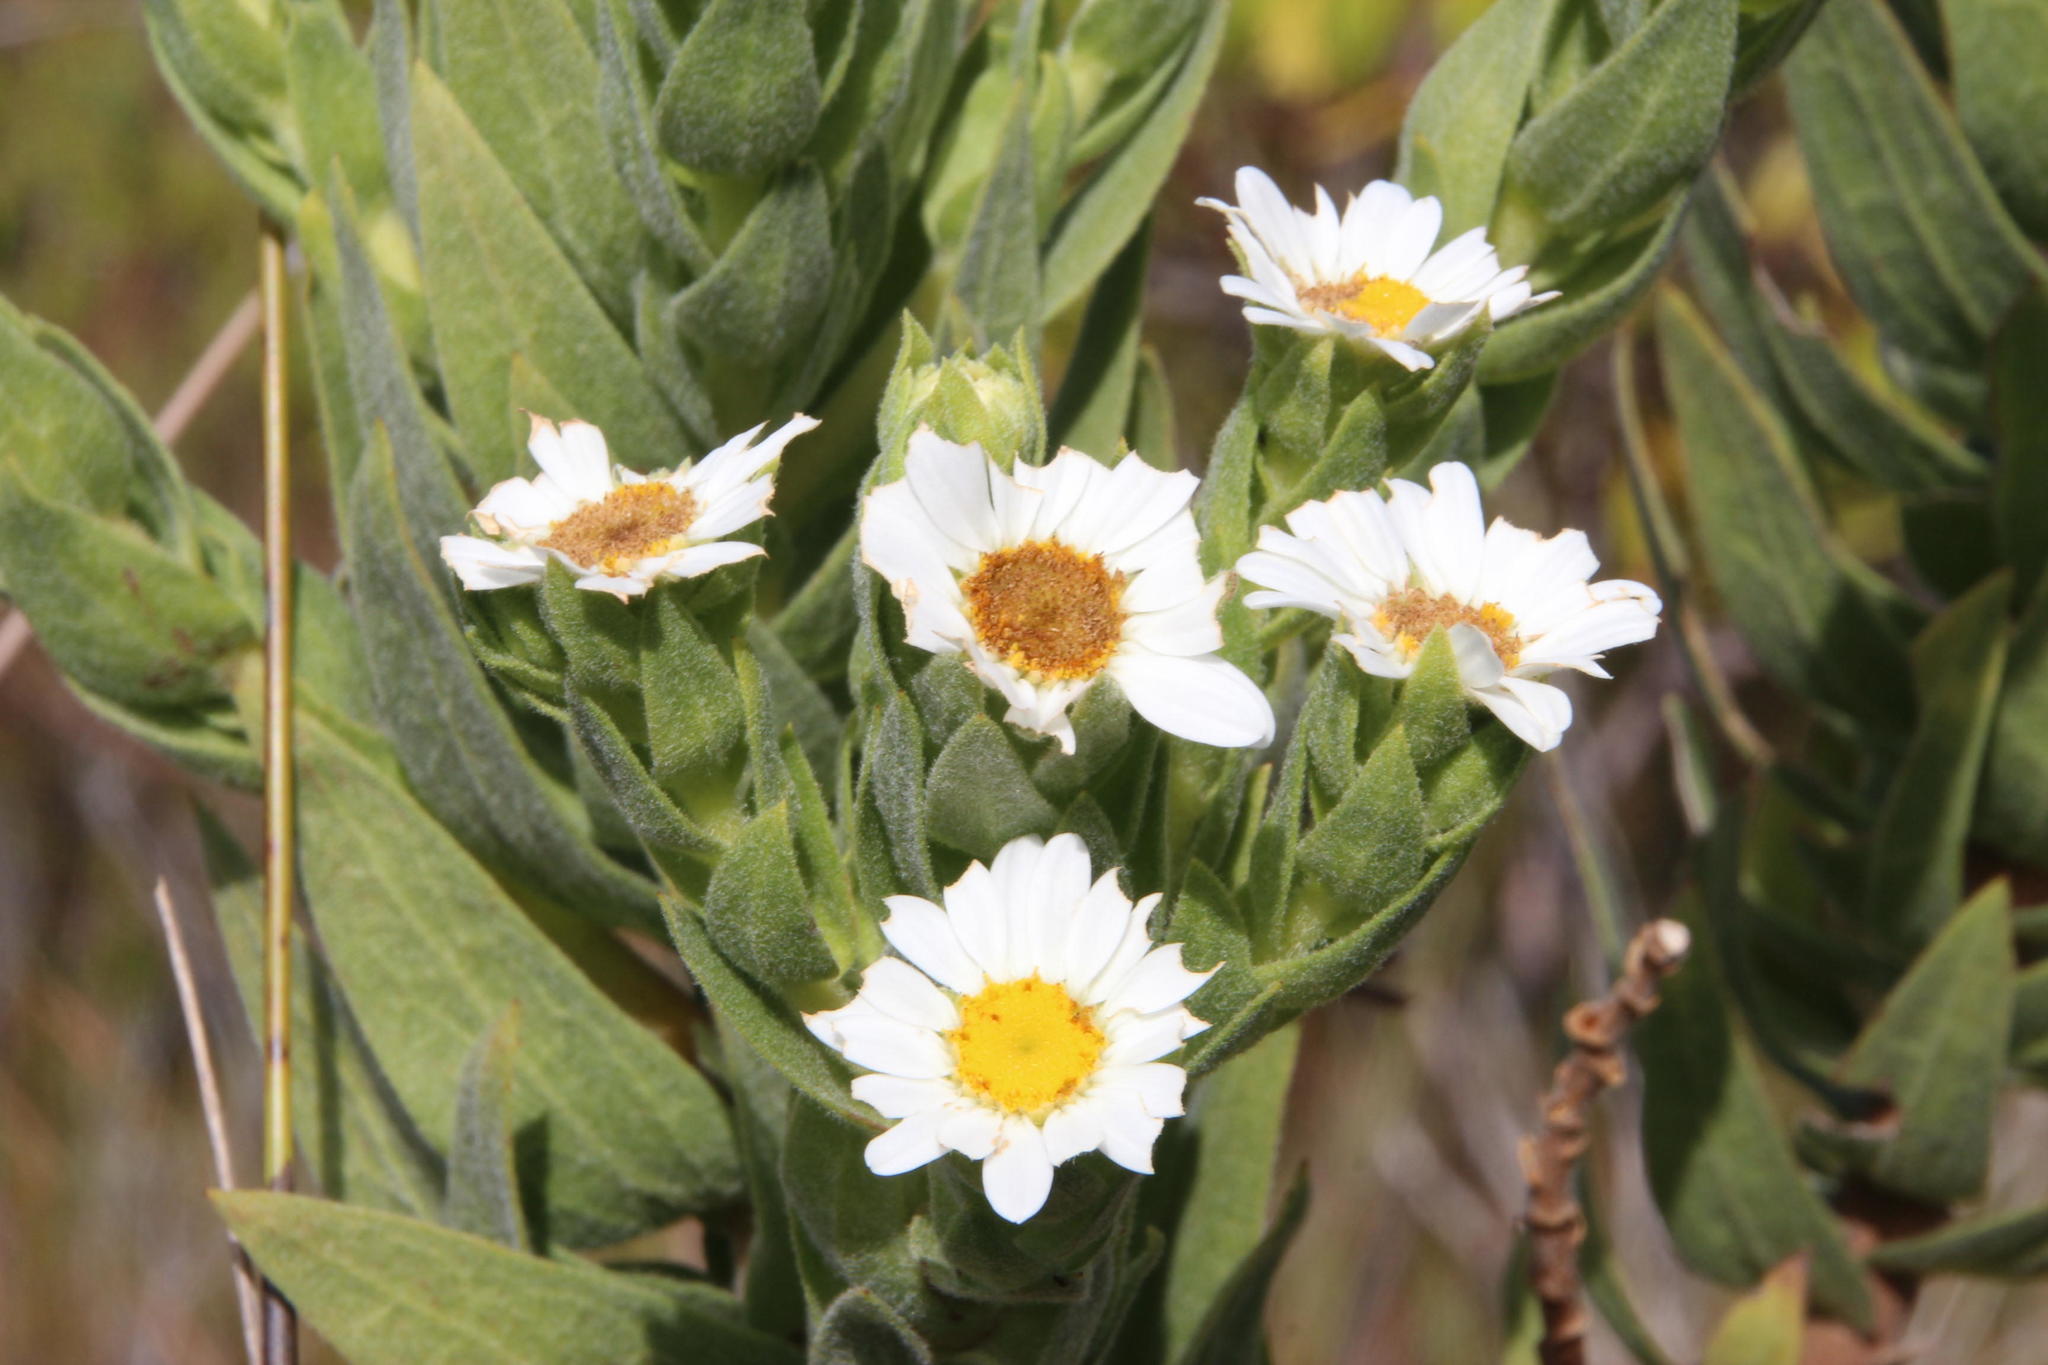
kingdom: Plantae
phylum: Tracheophyta
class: Magnoliopsida
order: Asterales
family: Asteraceae
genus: Osmitopsis
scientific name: Osmitopsis asteriscoides
